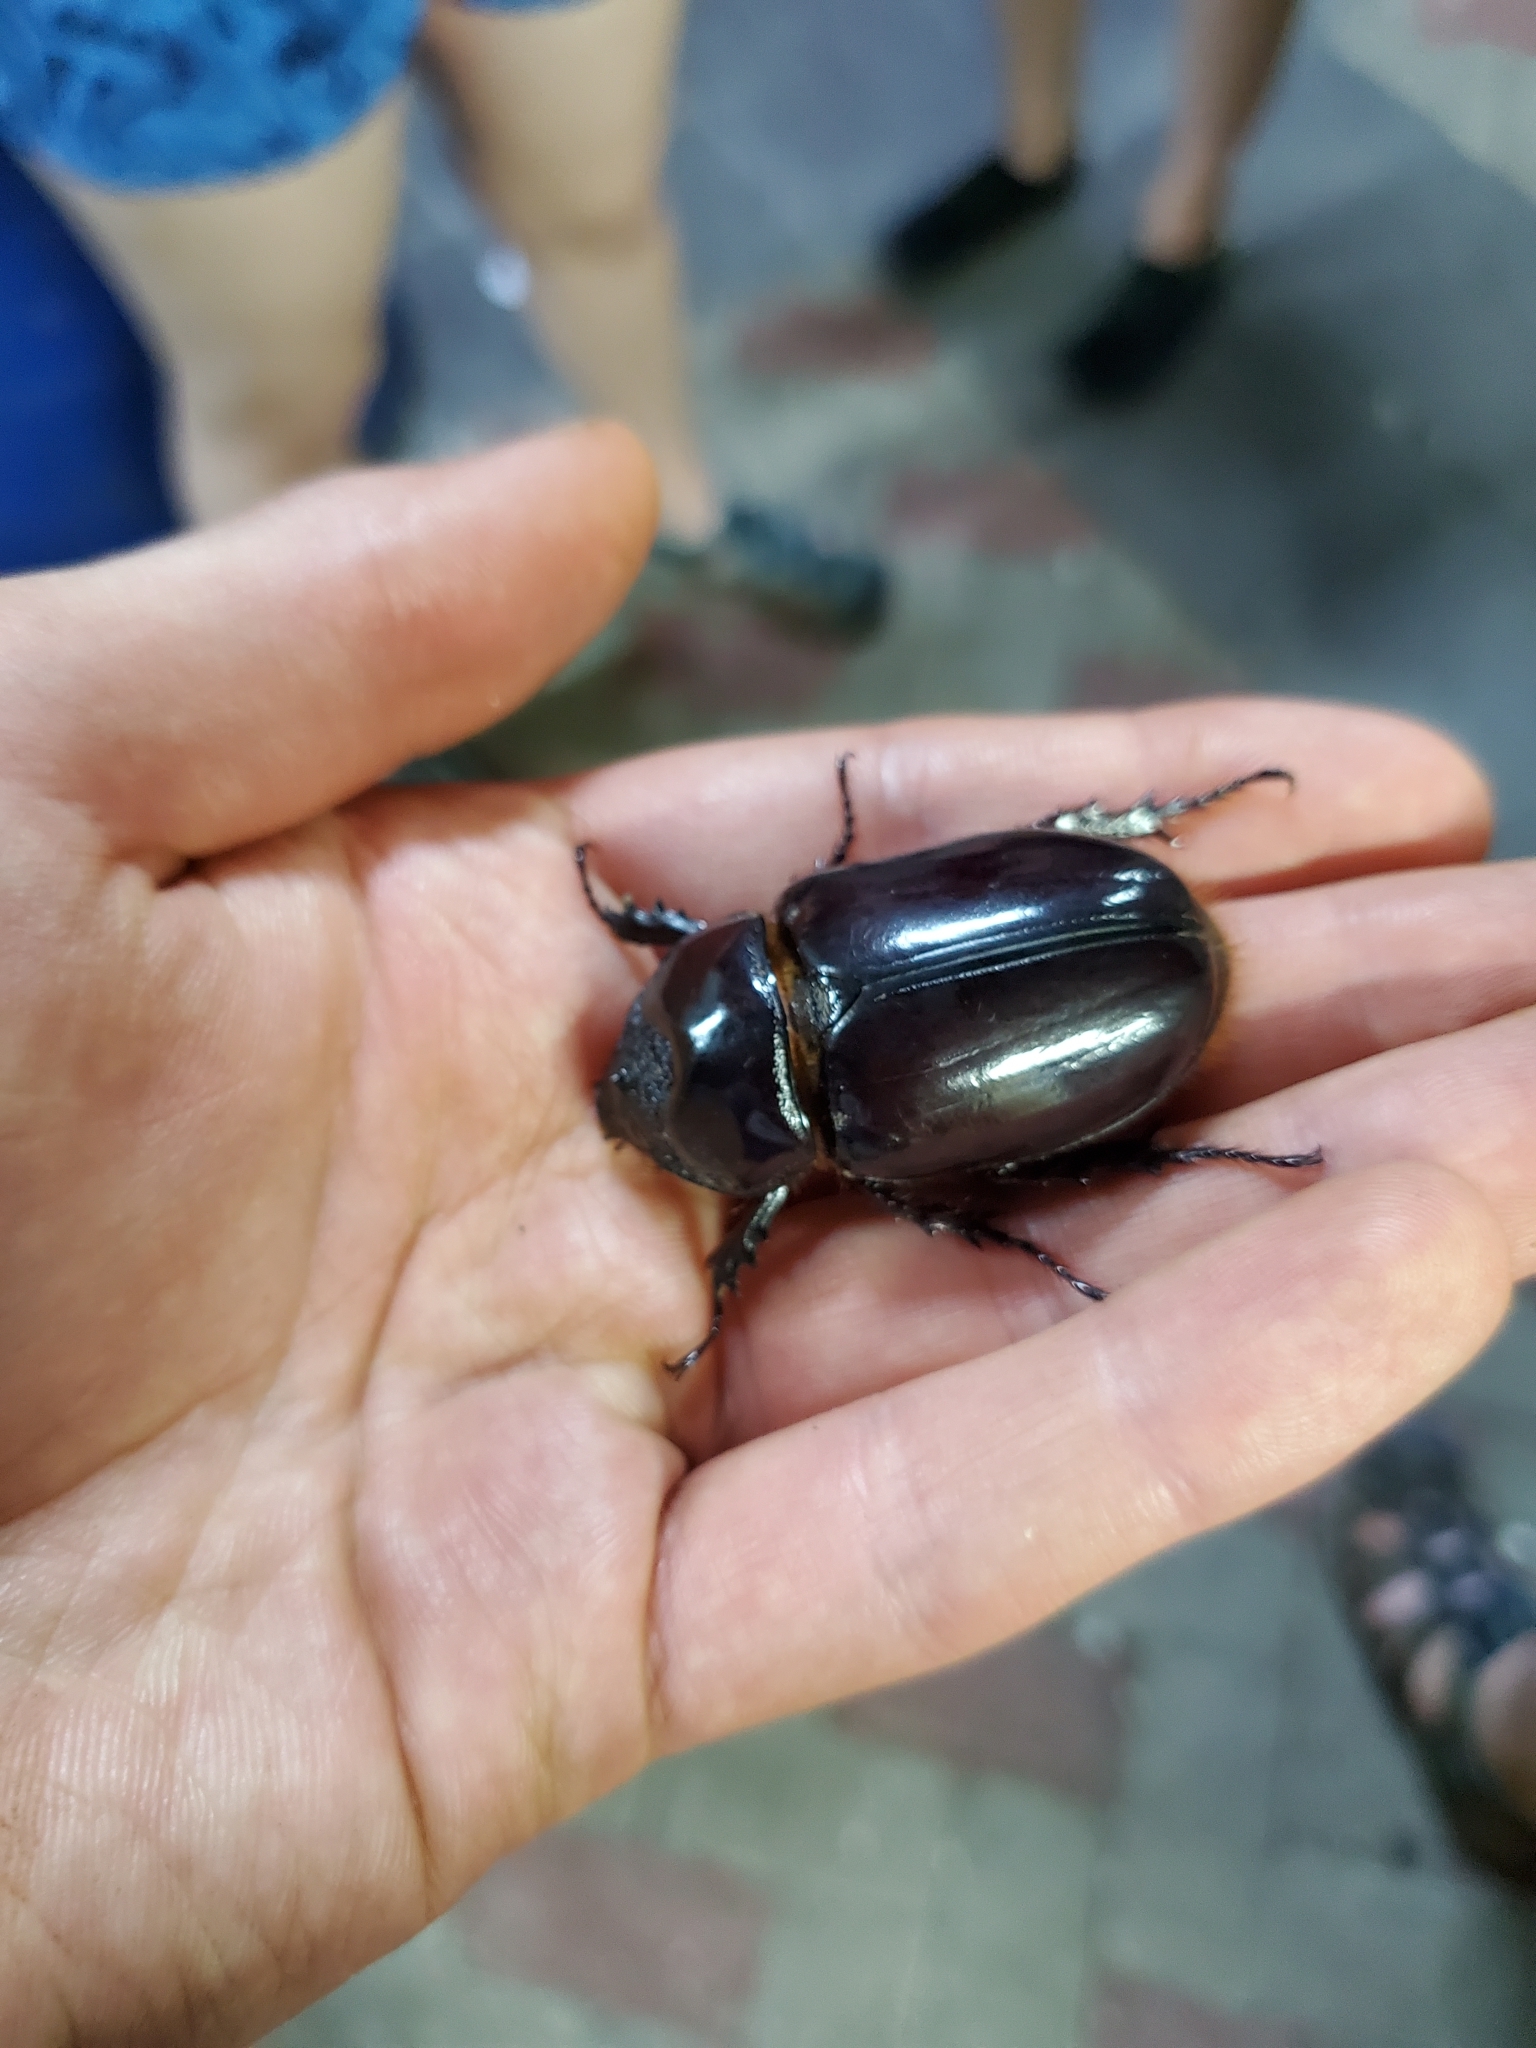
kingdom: Animalia
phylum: Arthropoda
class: Insecta
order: Coleoptera
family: Scarabaeidae
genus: Strategus
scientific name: Strategus oblongus
